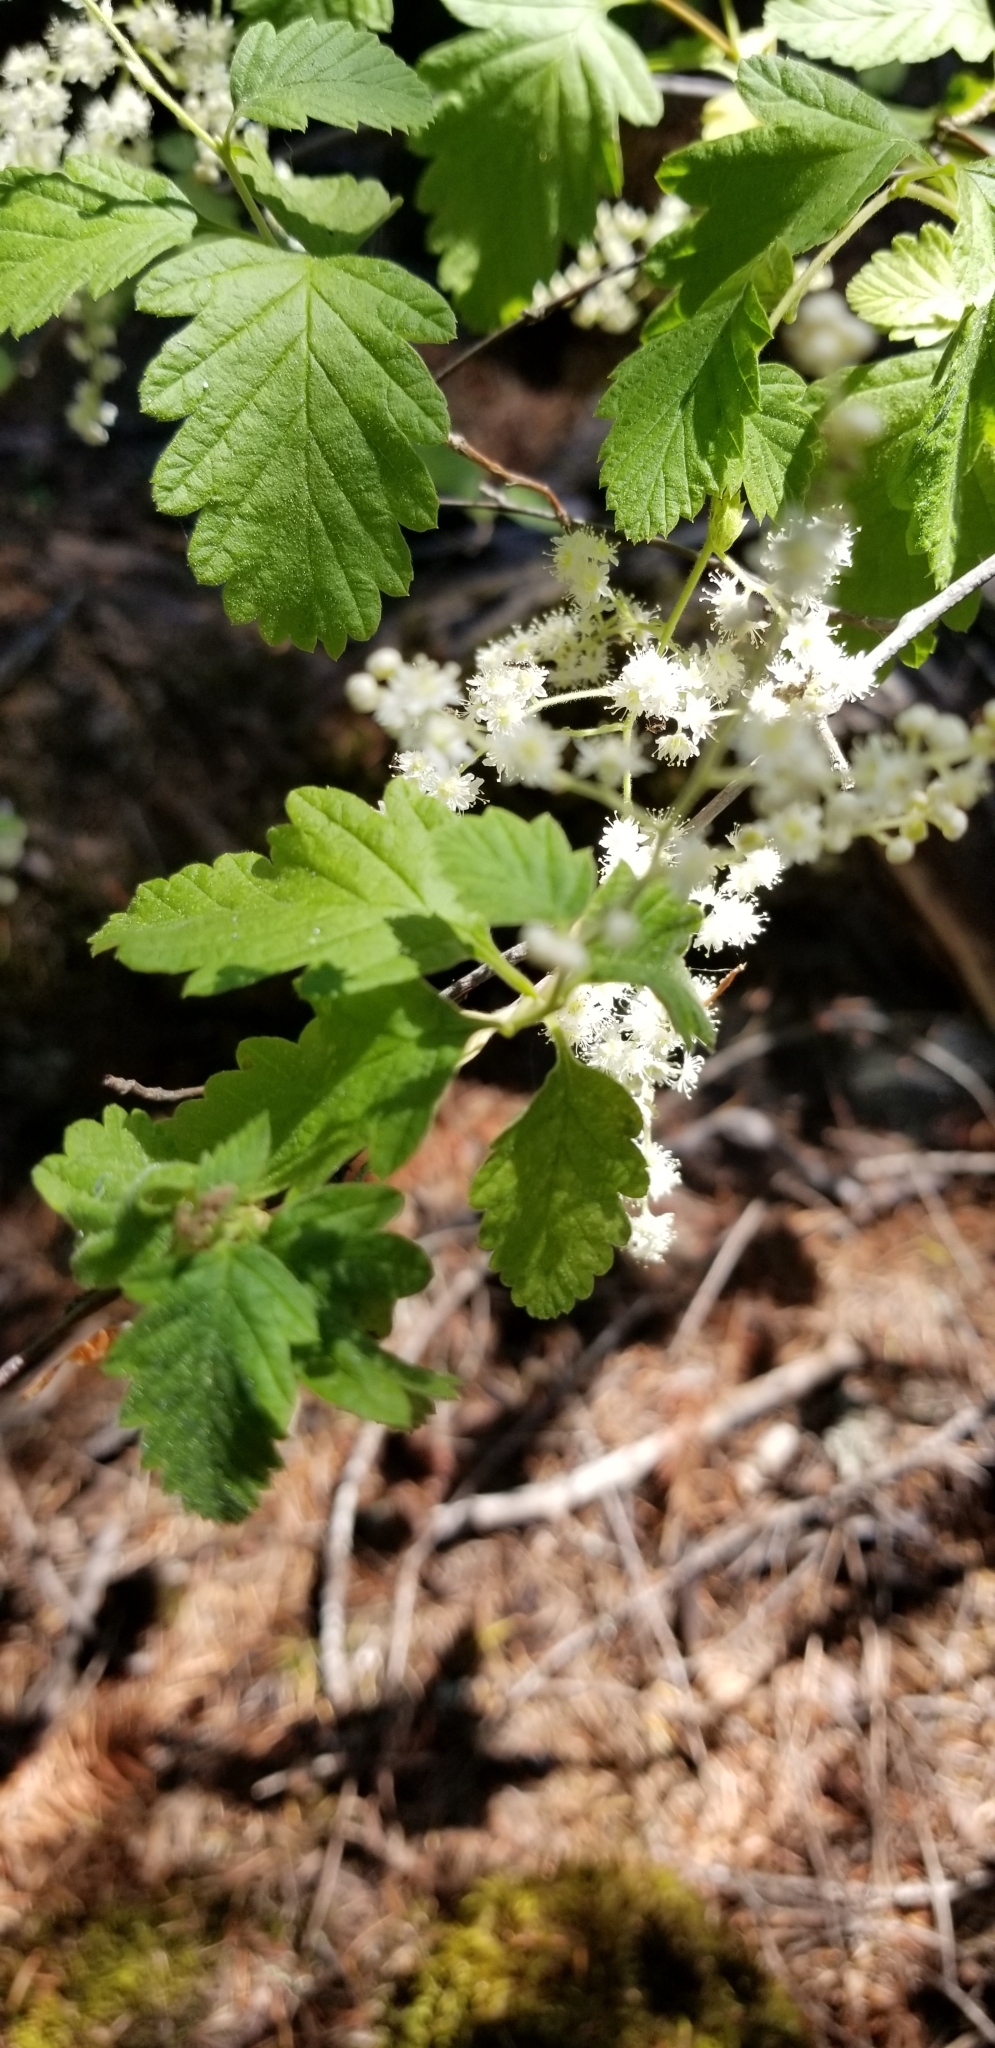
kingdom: Plantae
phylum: Tracheophyta
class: Magnoliopsida
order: Rosales
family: Rosaceae
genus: Holodiscus
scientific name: Holodiscus discolor
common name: Oceanspray
